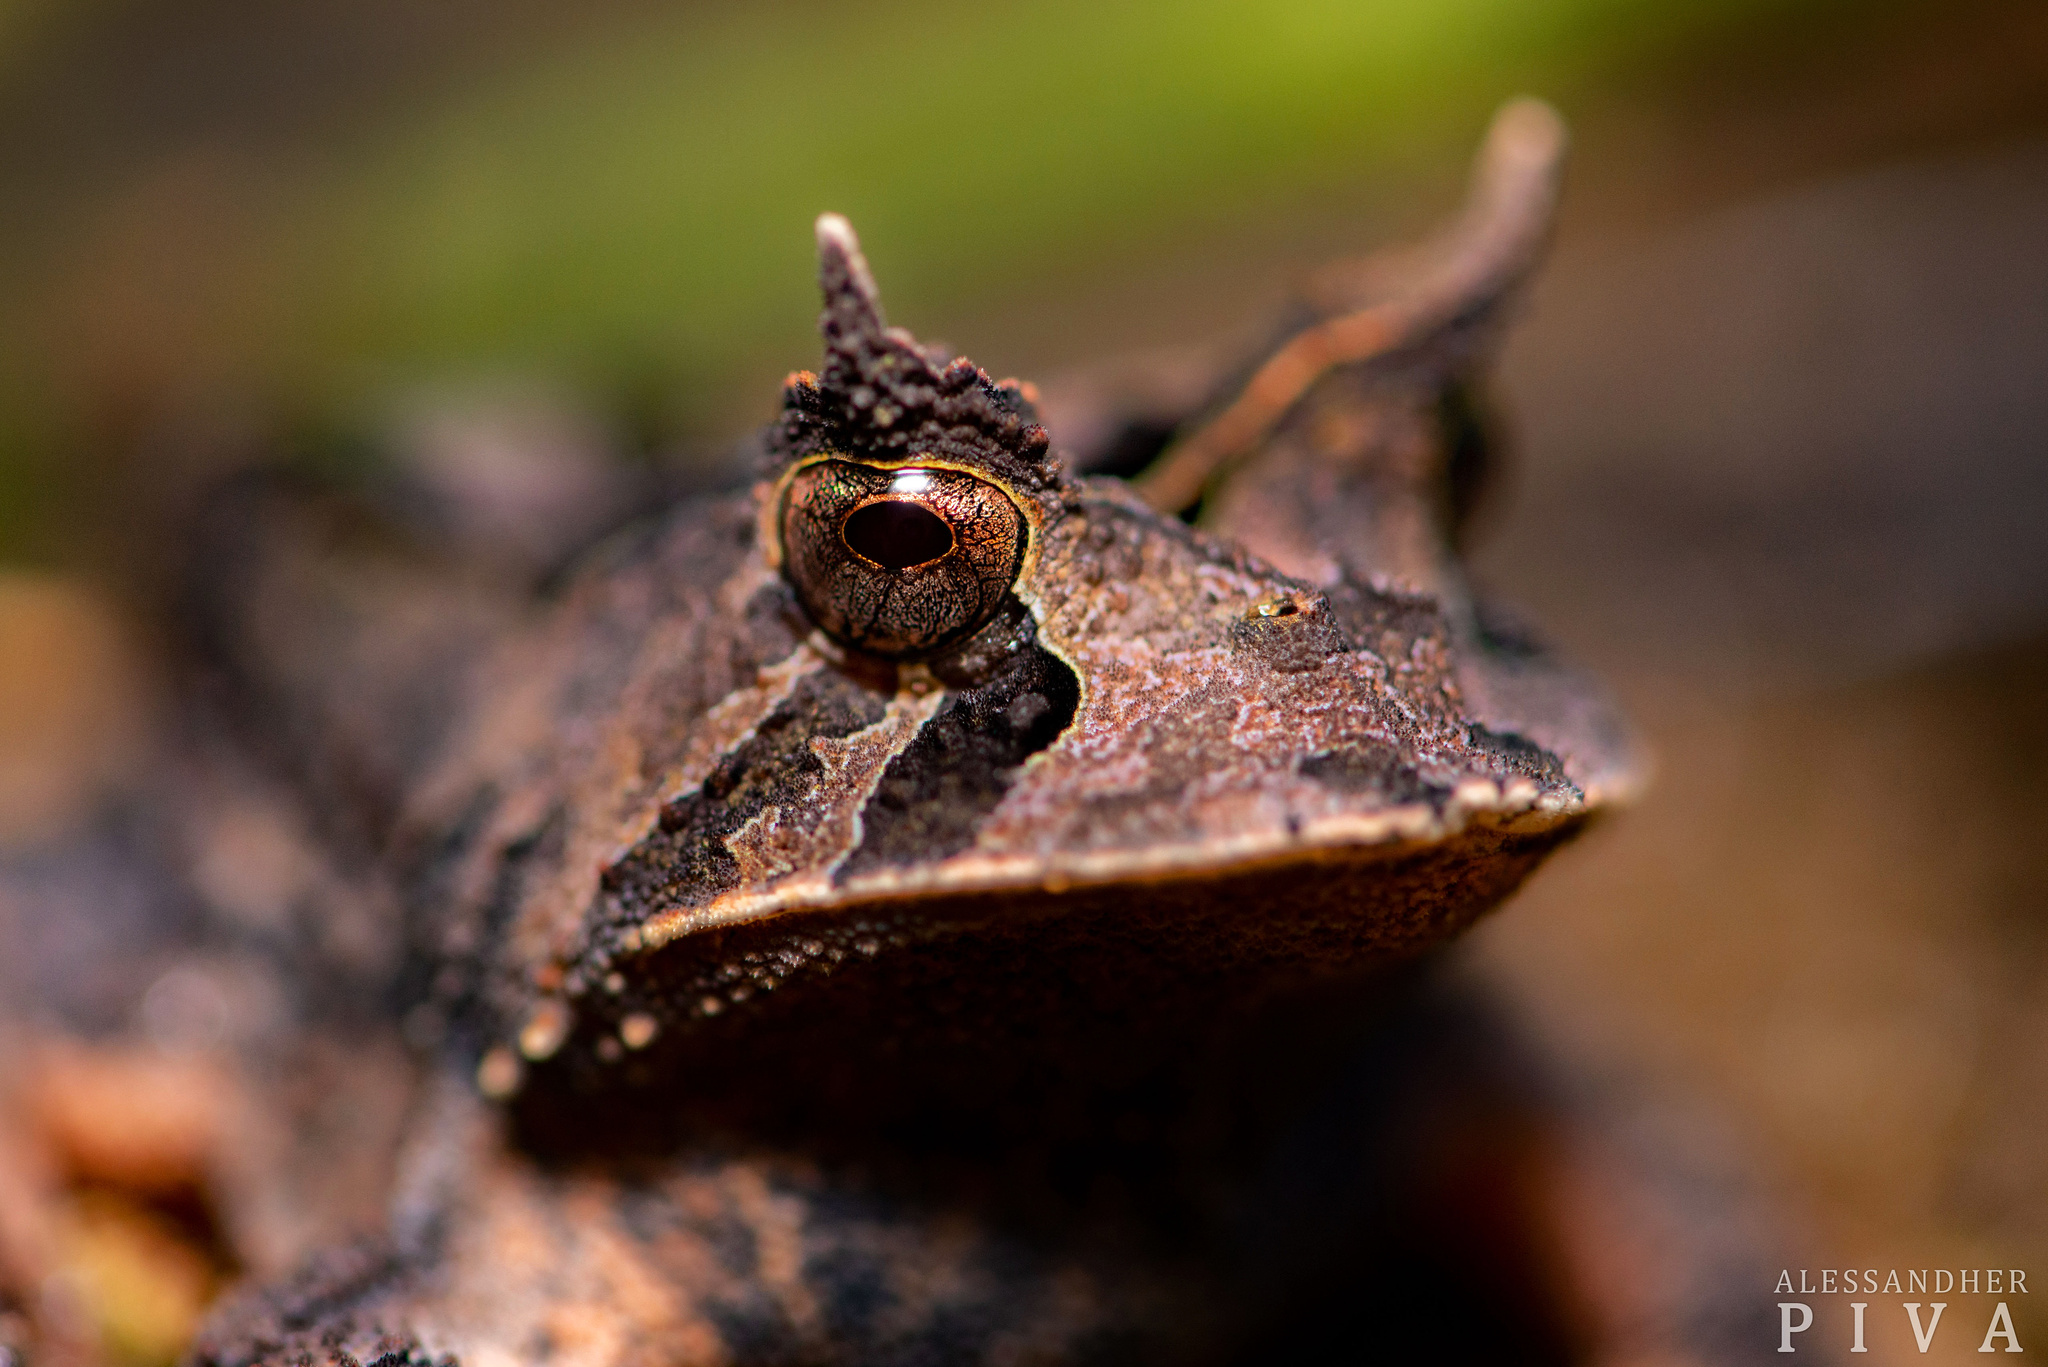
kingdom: Animalia
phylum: Chordata
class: Amphibia
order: Anura
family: Odontophrynidae
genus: Proceratophrys
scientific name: Proceratophrys boiei
